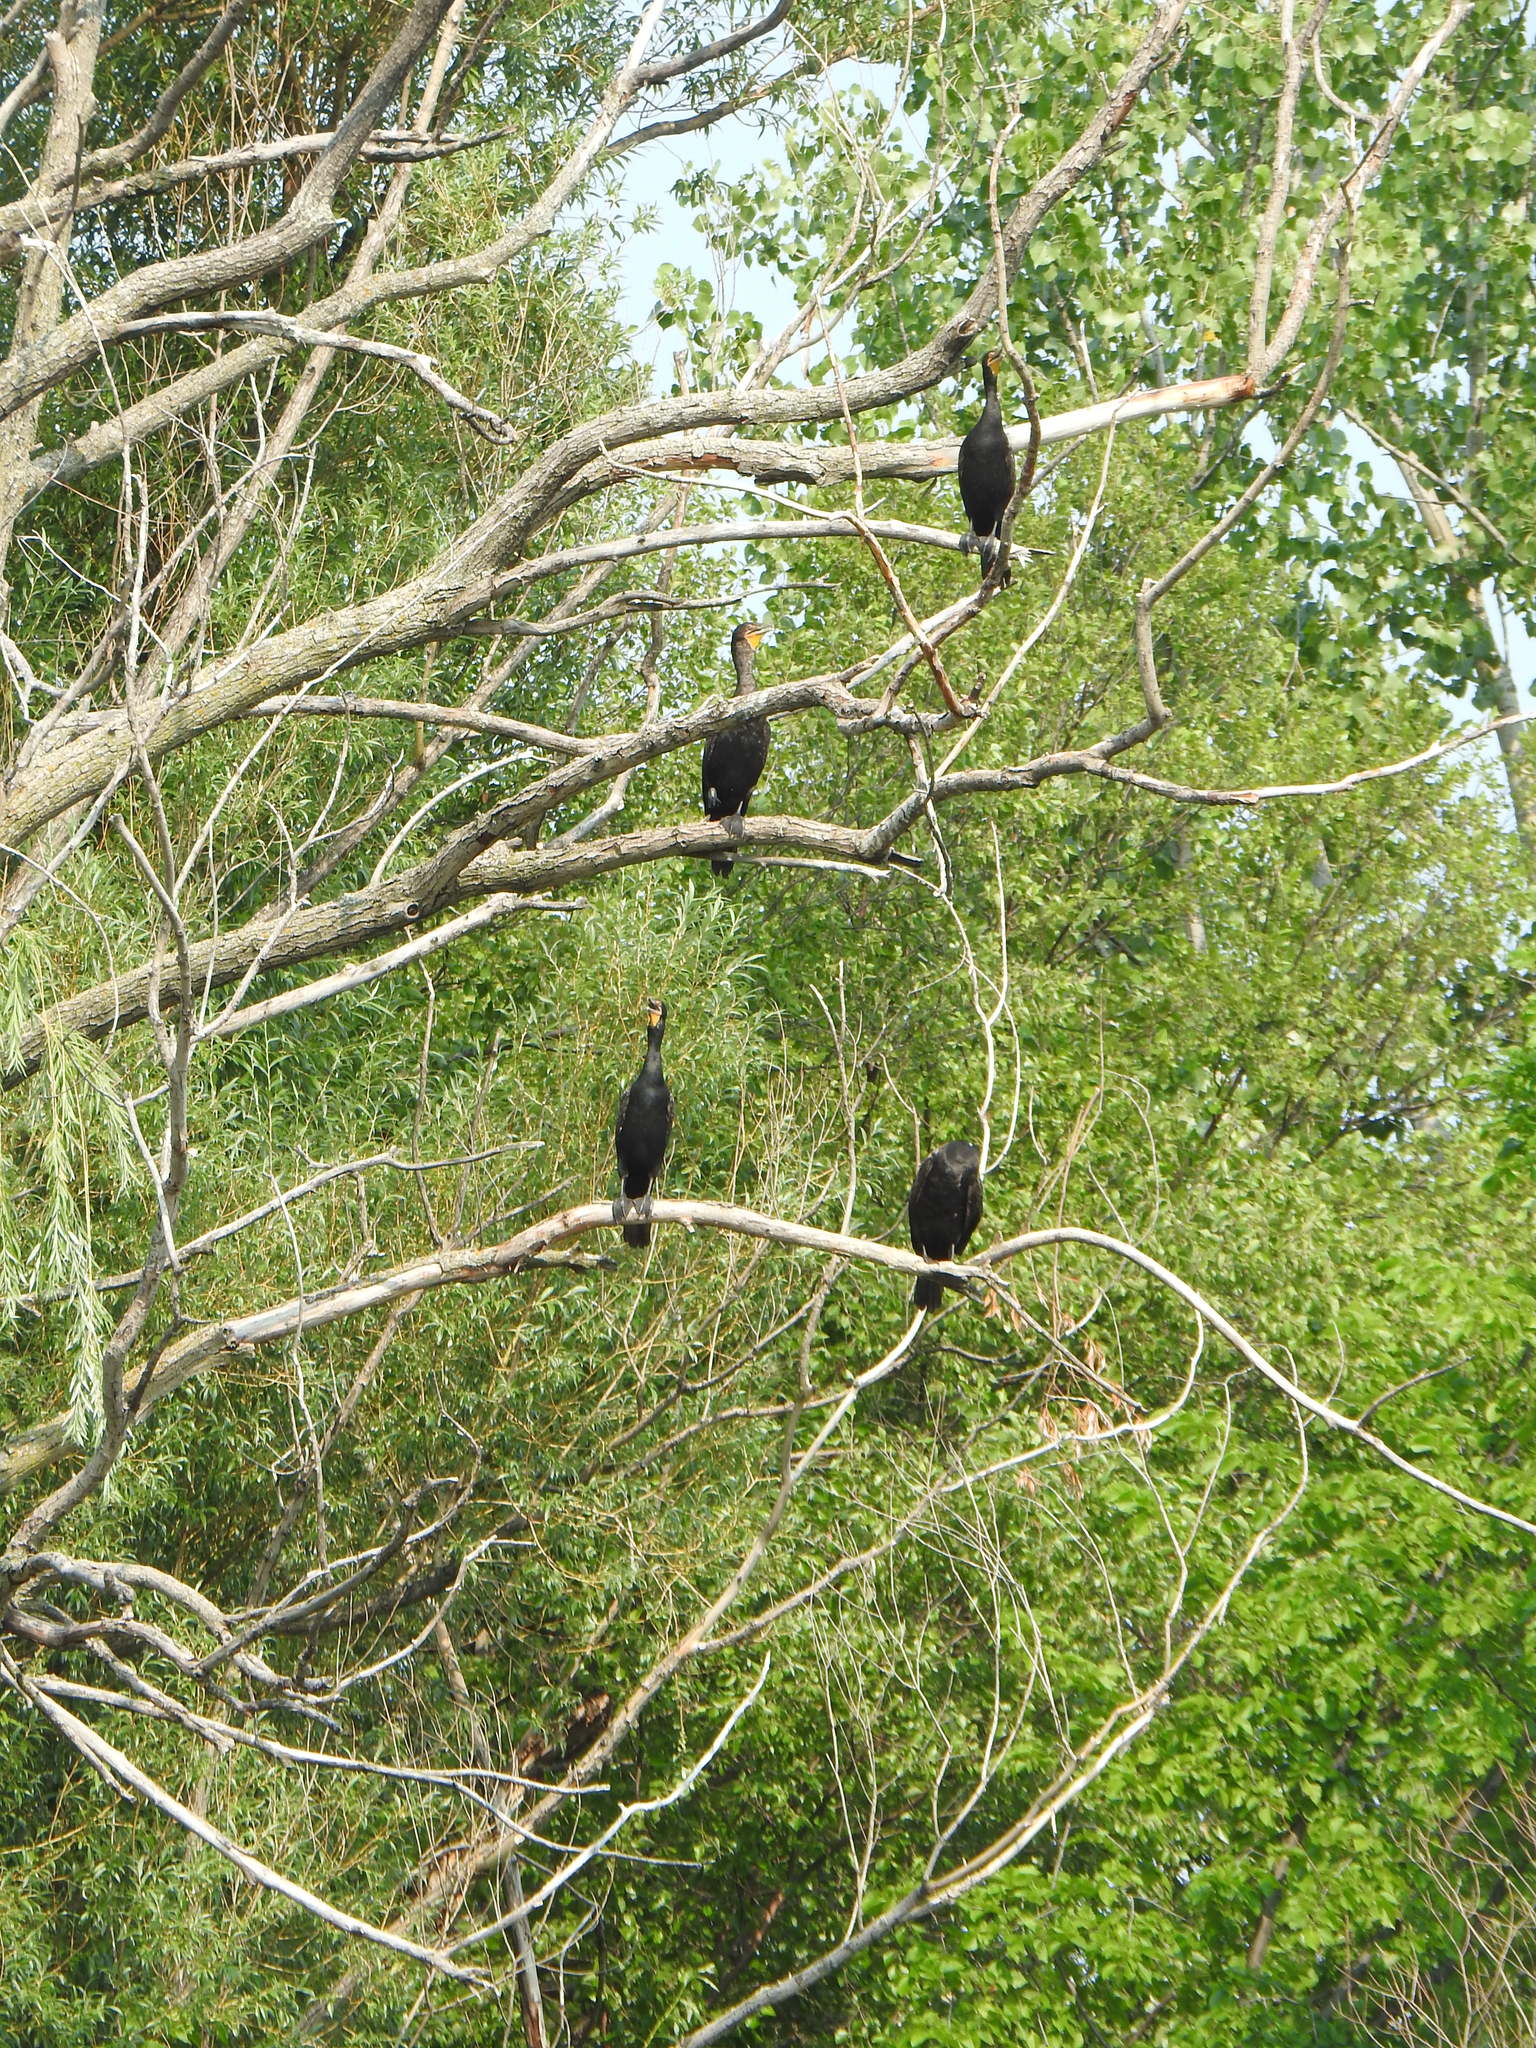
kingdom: Animalia
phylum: Chordata
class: Aves
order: Suliformes
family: Phalacrocoracidae
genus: Phalacrocorax
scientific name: Phalacrocorax auritus
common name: Double-crested cormorant
